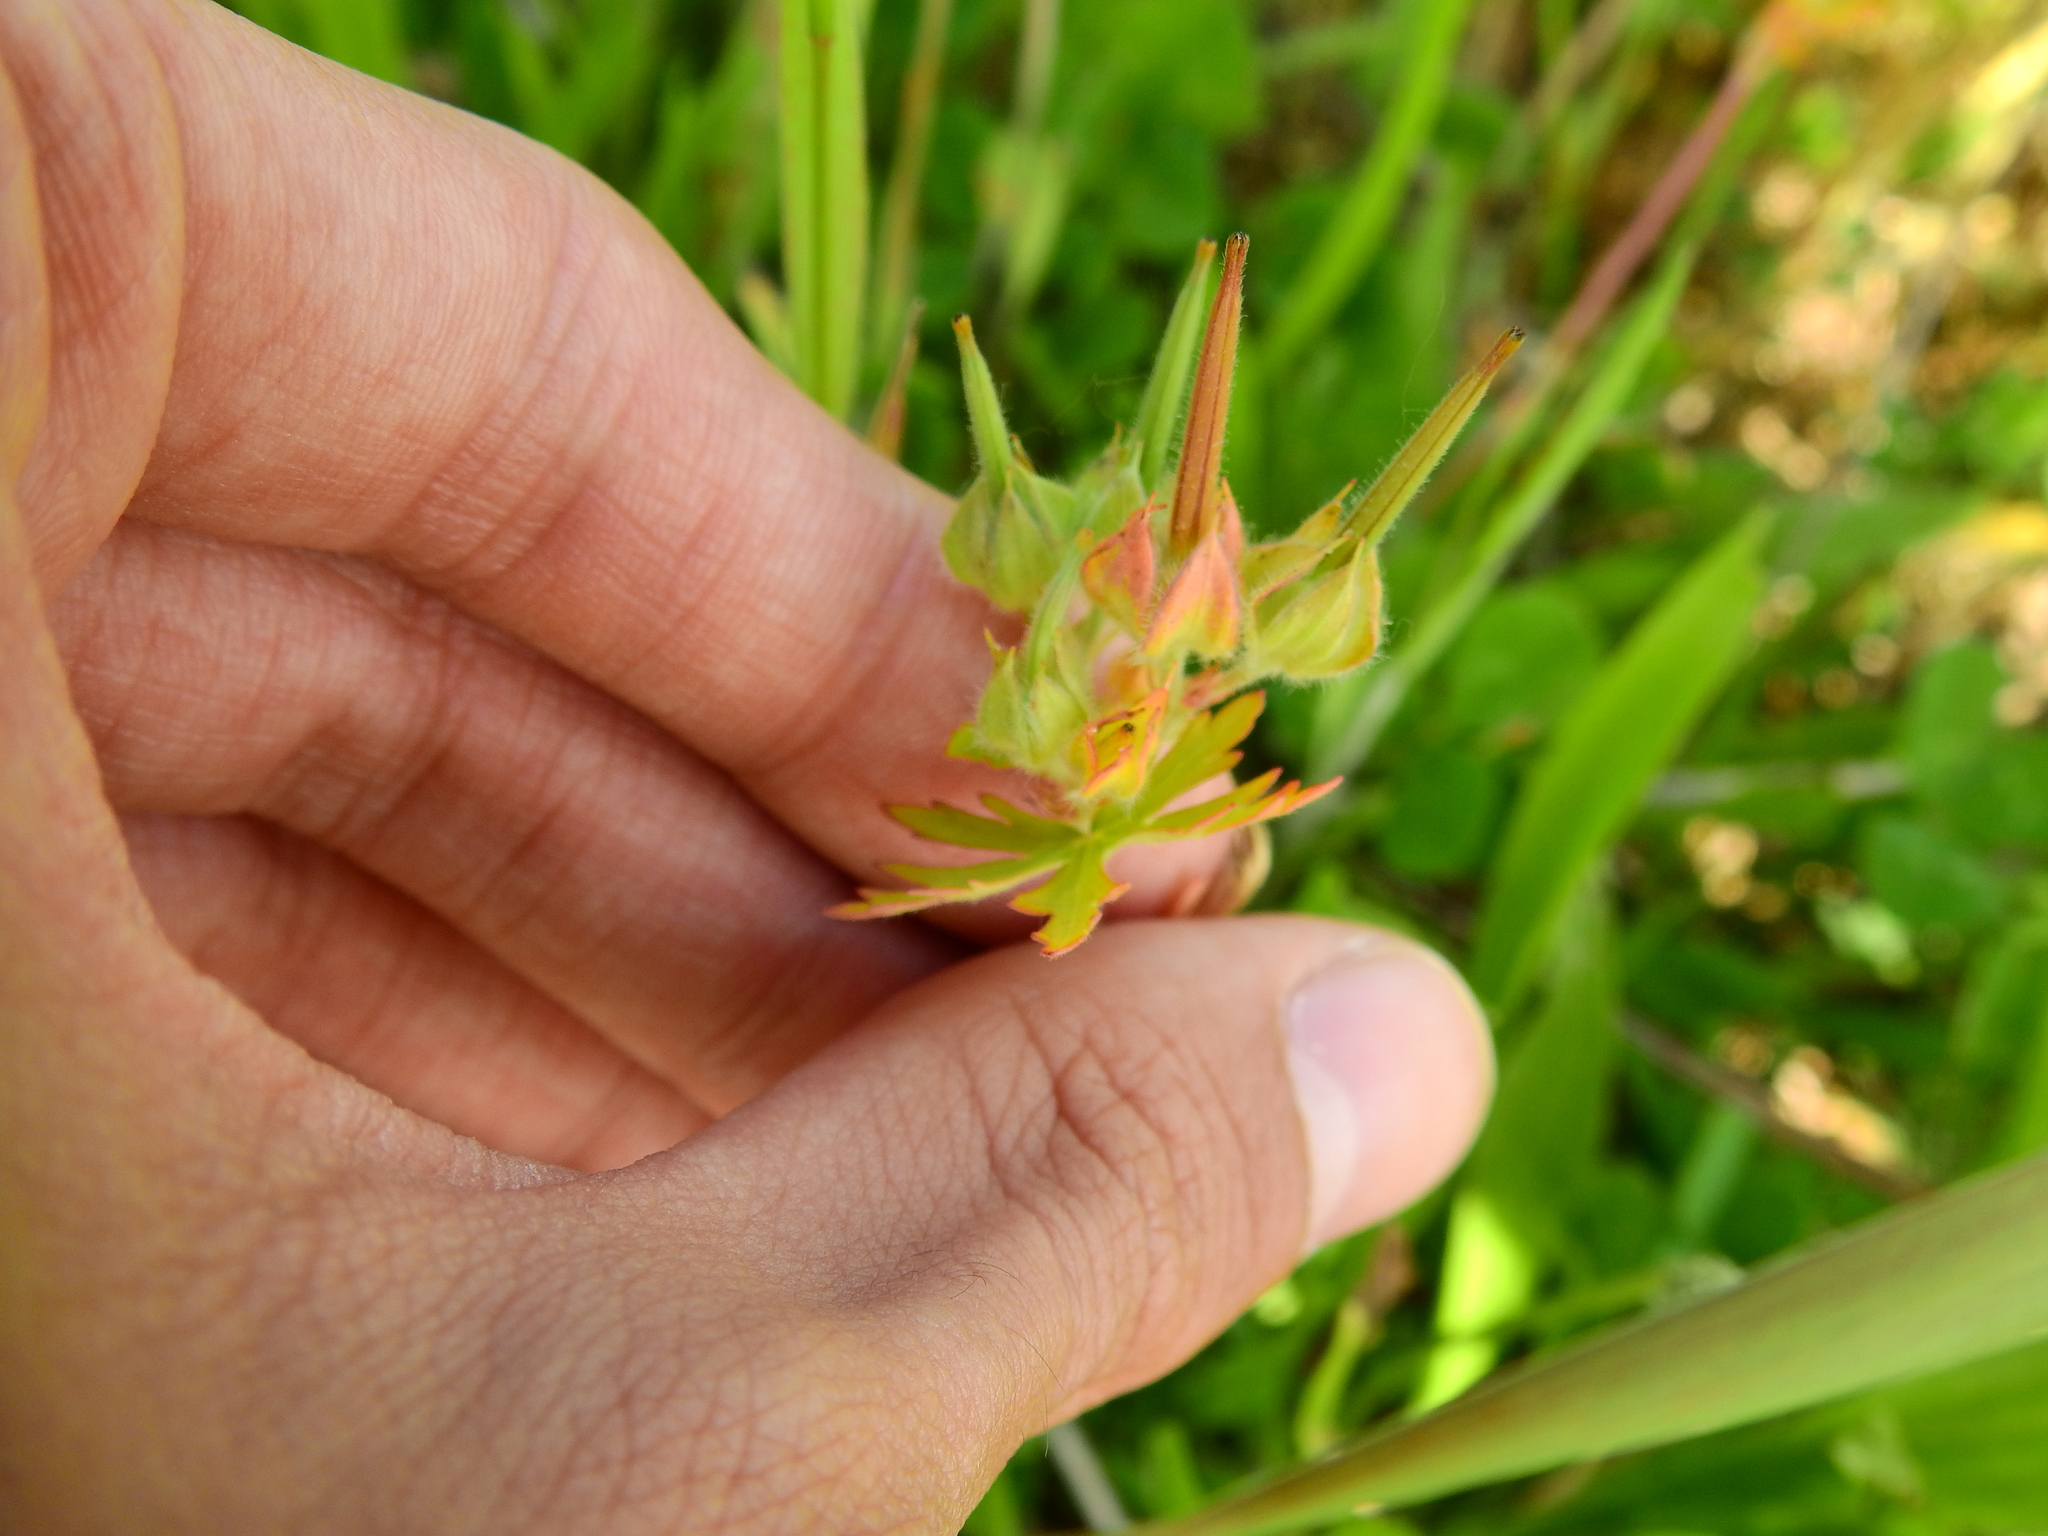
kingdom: Plantae
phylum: Tracheophyta
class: Magnoliopsida
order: Geraniales
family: Geraniaceae
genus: Geranium
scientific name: Geranium carolinianum
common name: Carolina crane's-bill
